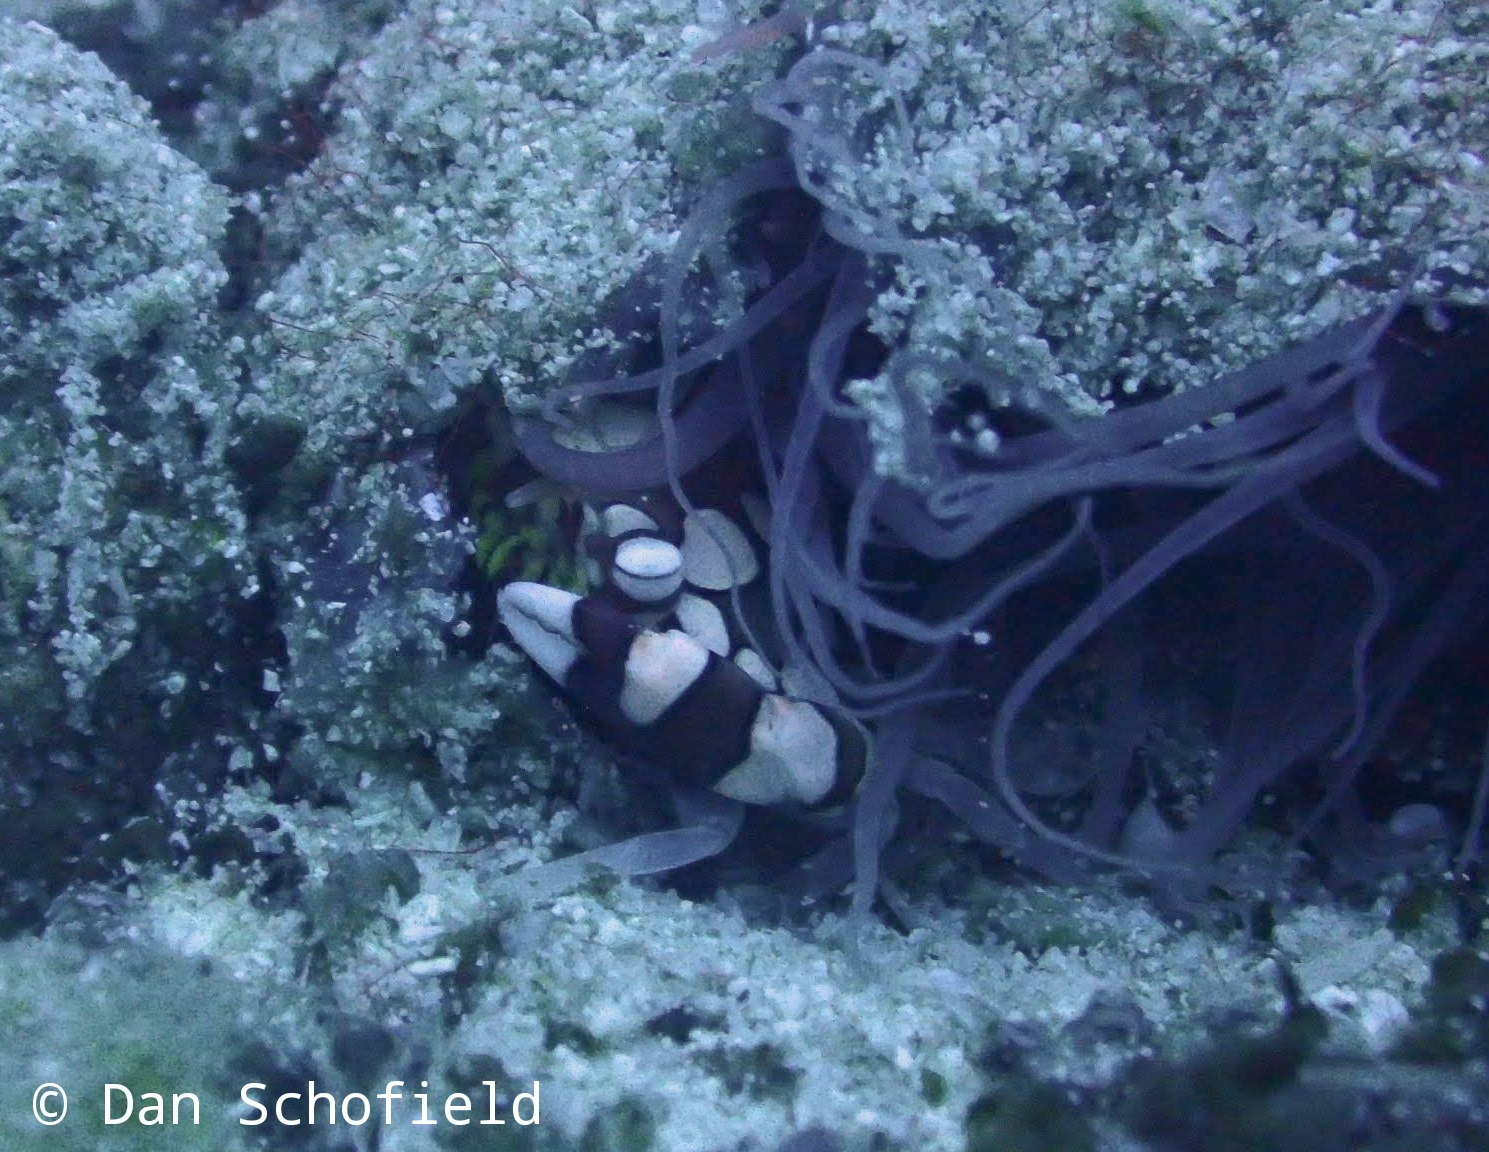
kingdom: Animalia
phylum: Arthropoda
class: Malacostraca
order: Decapoda
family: Portunidae
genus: Lissocarcinus
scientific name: Lissocarcinus laevis
